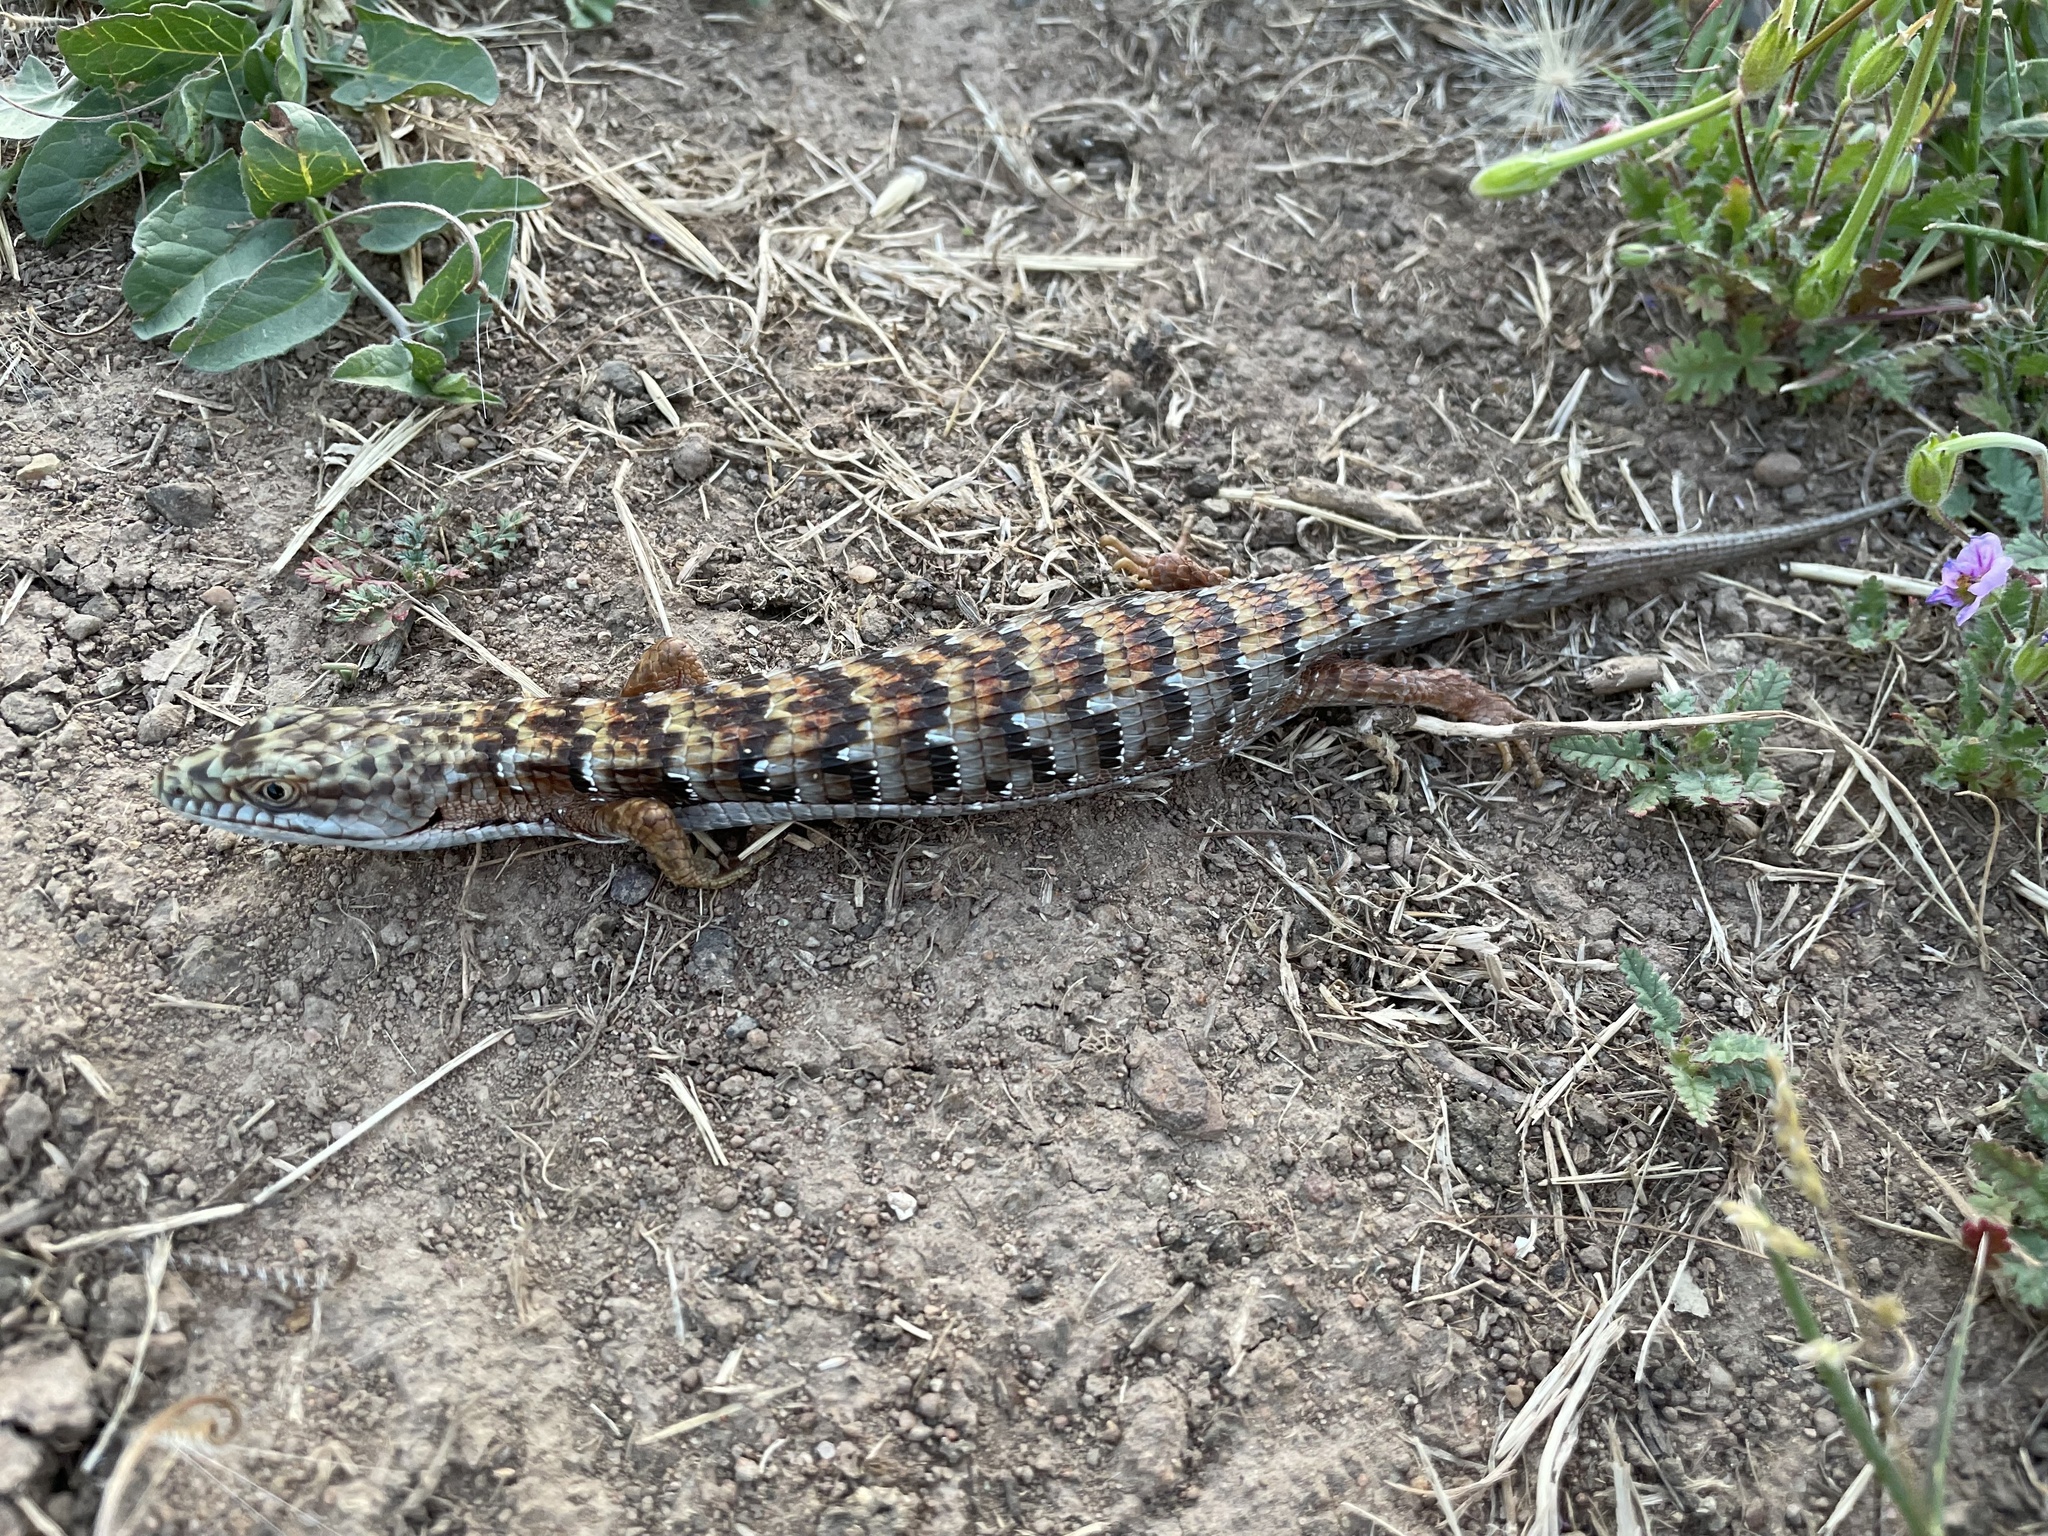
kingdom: Animalia
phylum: Chordata
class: Squamata
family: Anguidae
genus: Elgaria
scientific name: Elgaria multicarinata
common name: Southern alligator lizard
